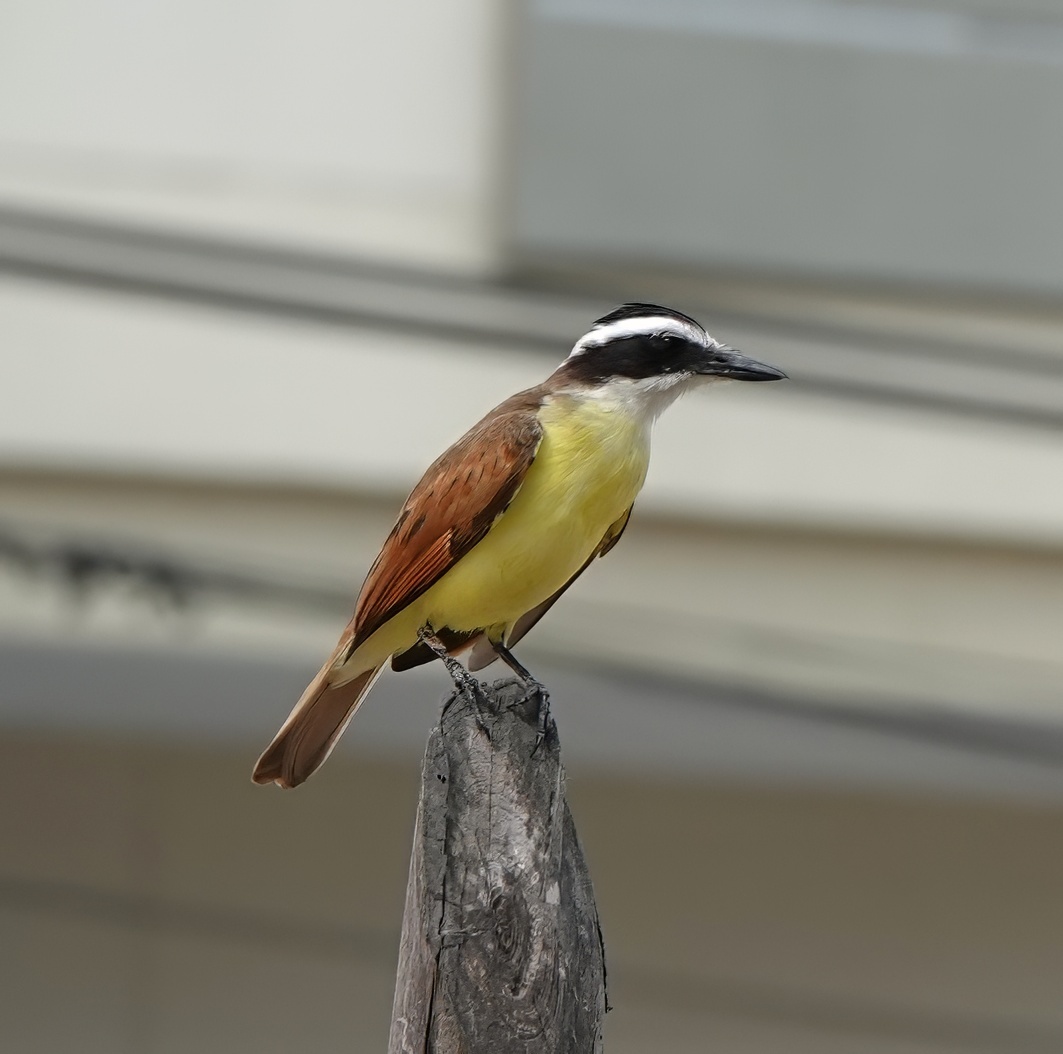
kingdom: Animalia
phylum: Chordata
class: Aves
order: Passeriformes
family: Tyrannidae
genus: Pitangus
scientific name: Pitangus sulphuratus
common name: Great kiskadee
